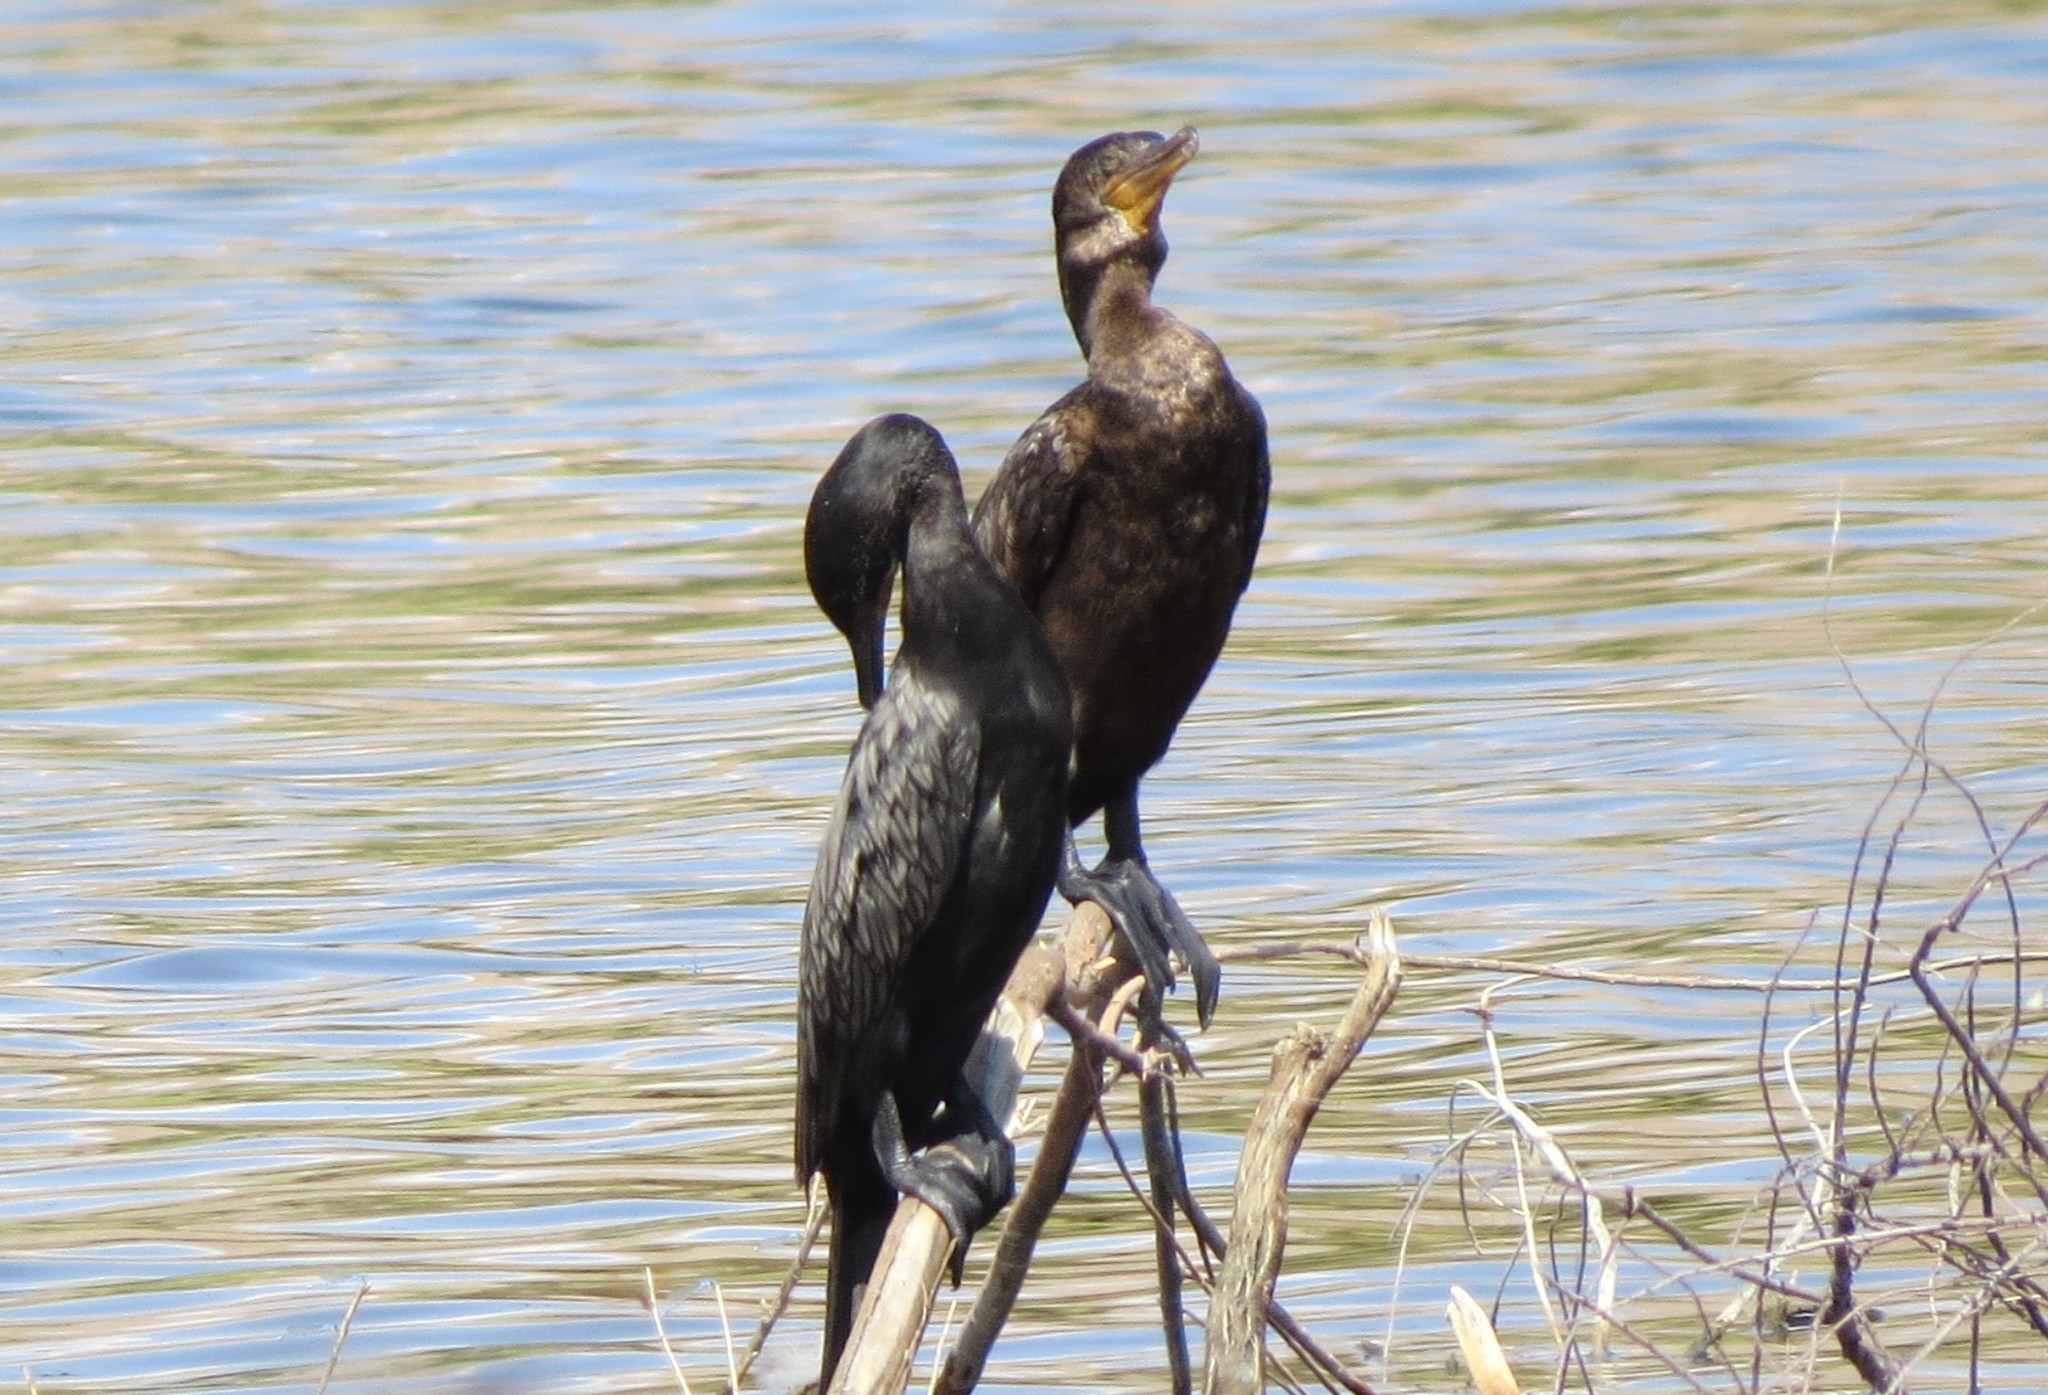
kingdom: Animalia
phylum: Chordata
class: Aves
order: Suliformes
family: Phalacrocoracidae
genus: Phalacrocorax
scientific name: Phalacrocorax brasilianus
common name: Neotropic cormorant
